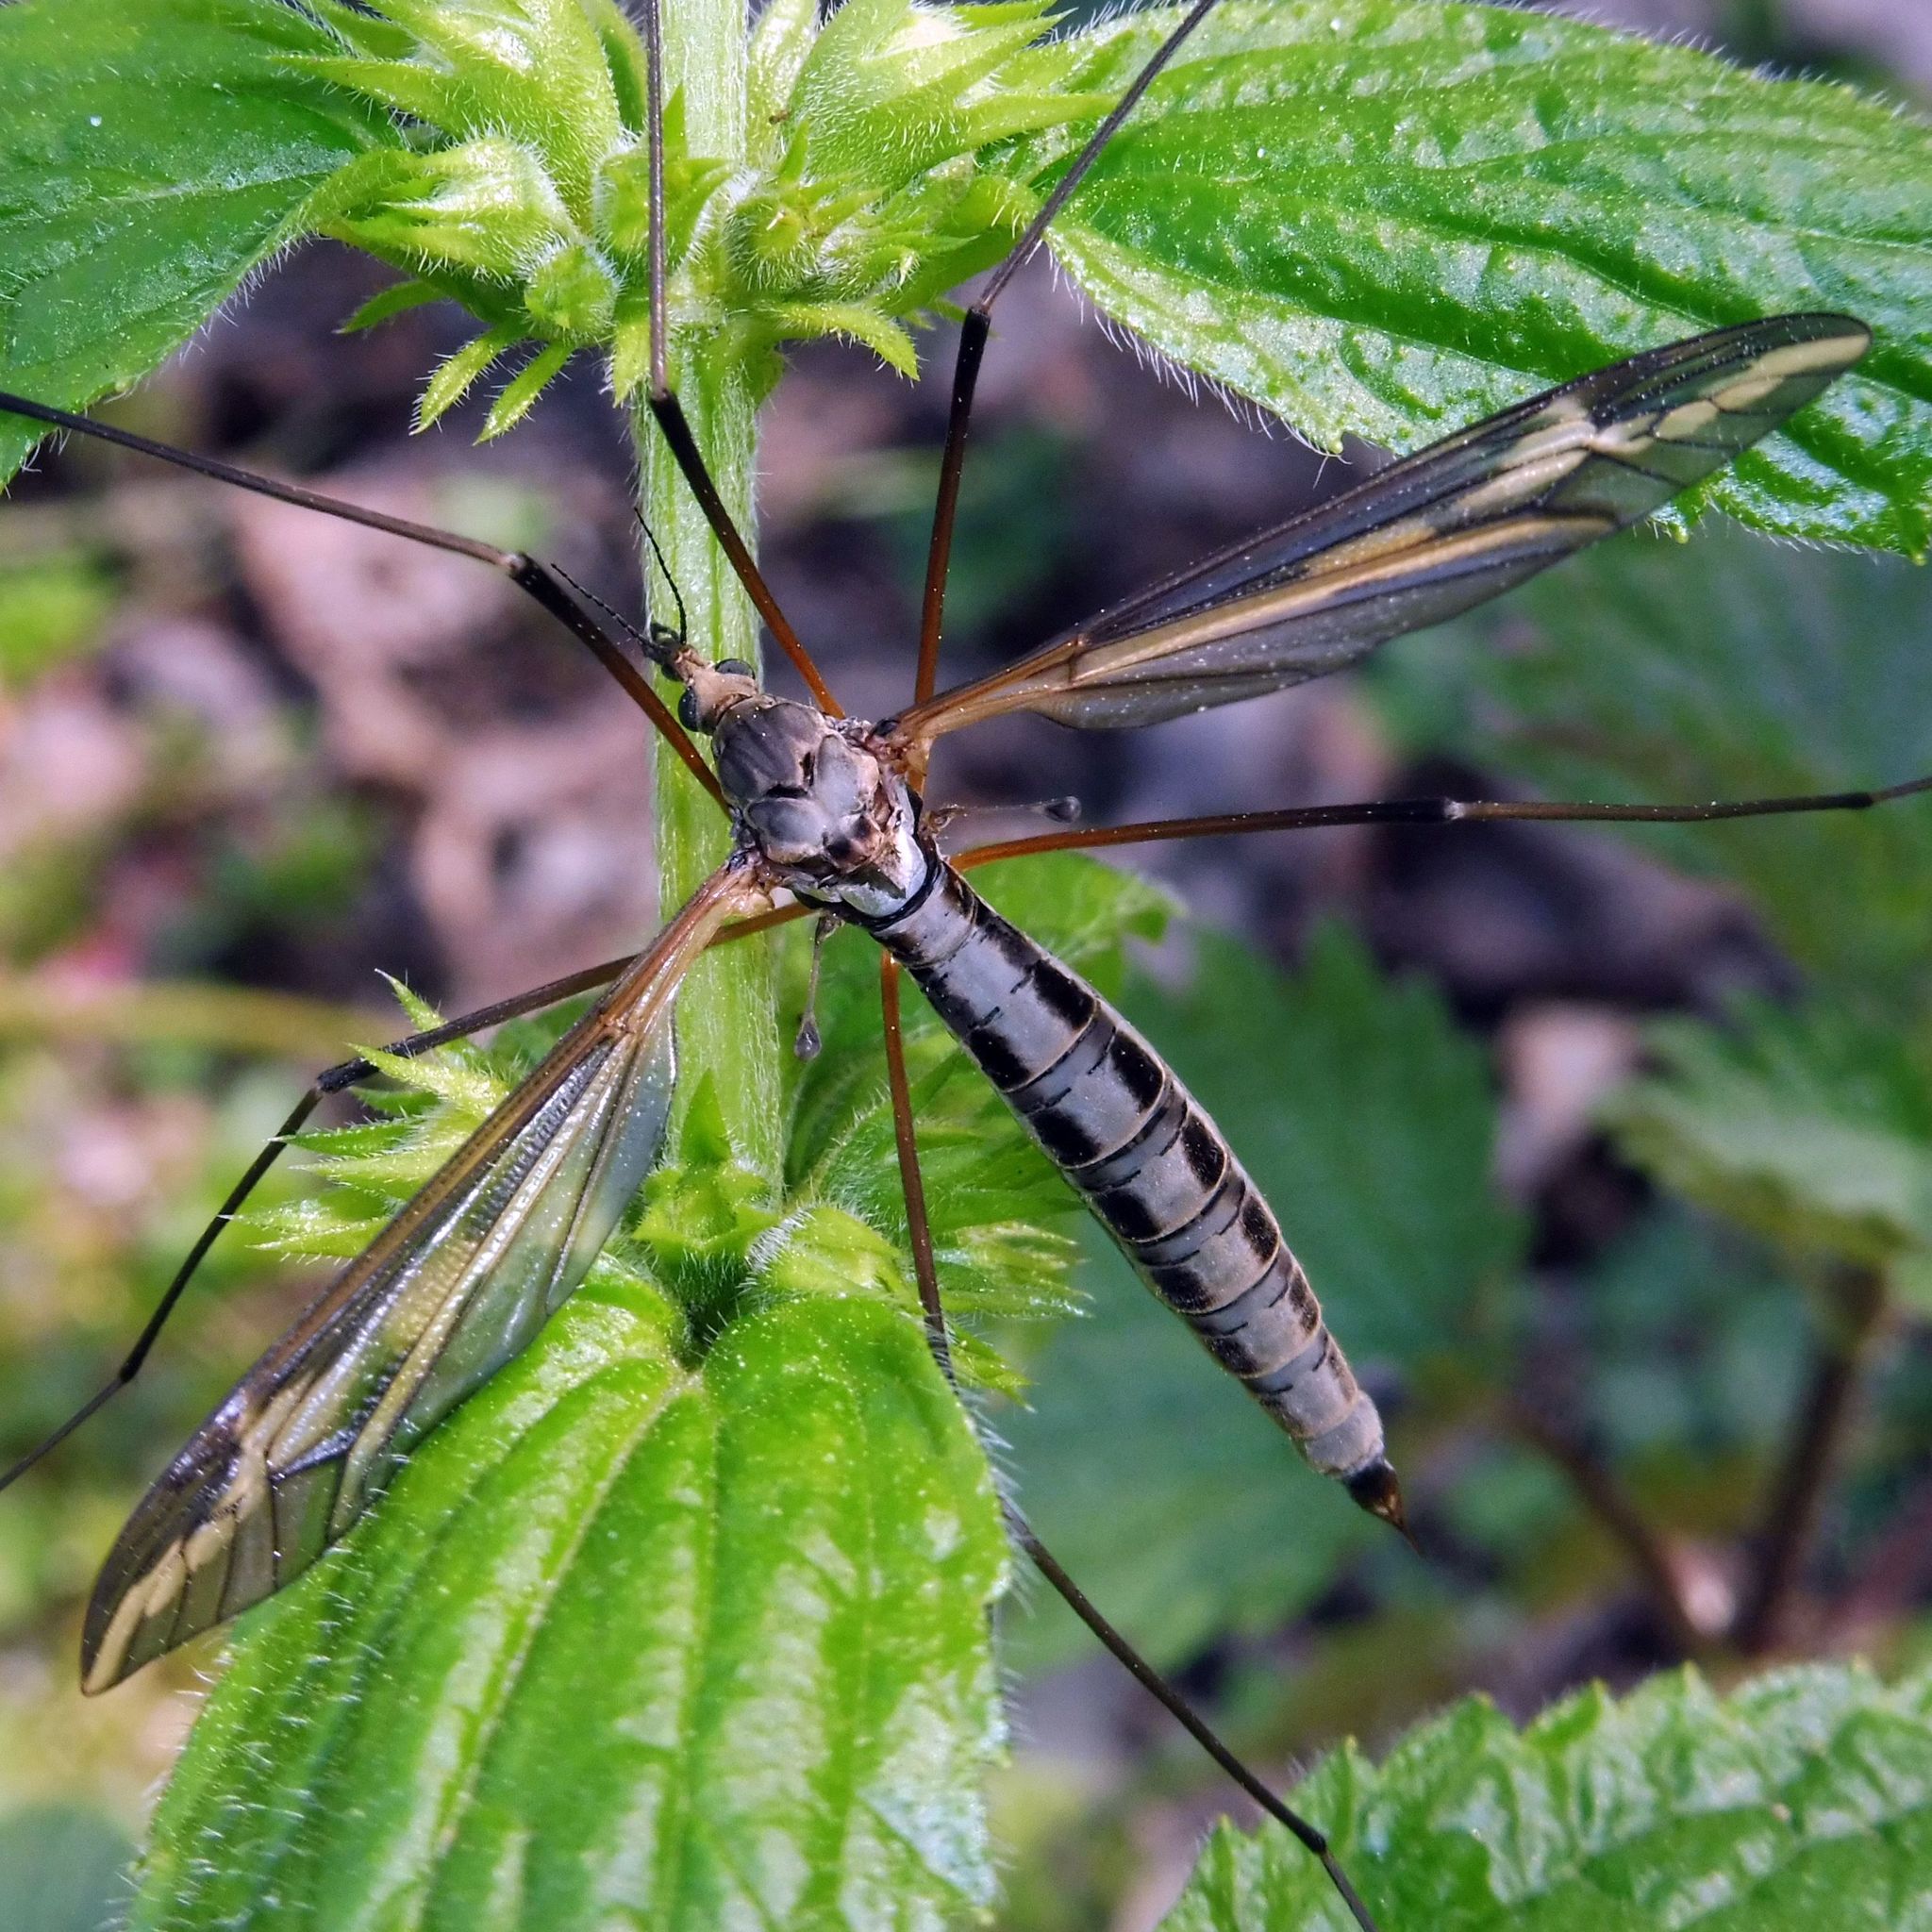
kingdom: Animalia
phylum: Arthropoda
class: Insecta
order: Diptera
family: Tipulidae
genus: Tipula
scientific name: Tipula vittata
